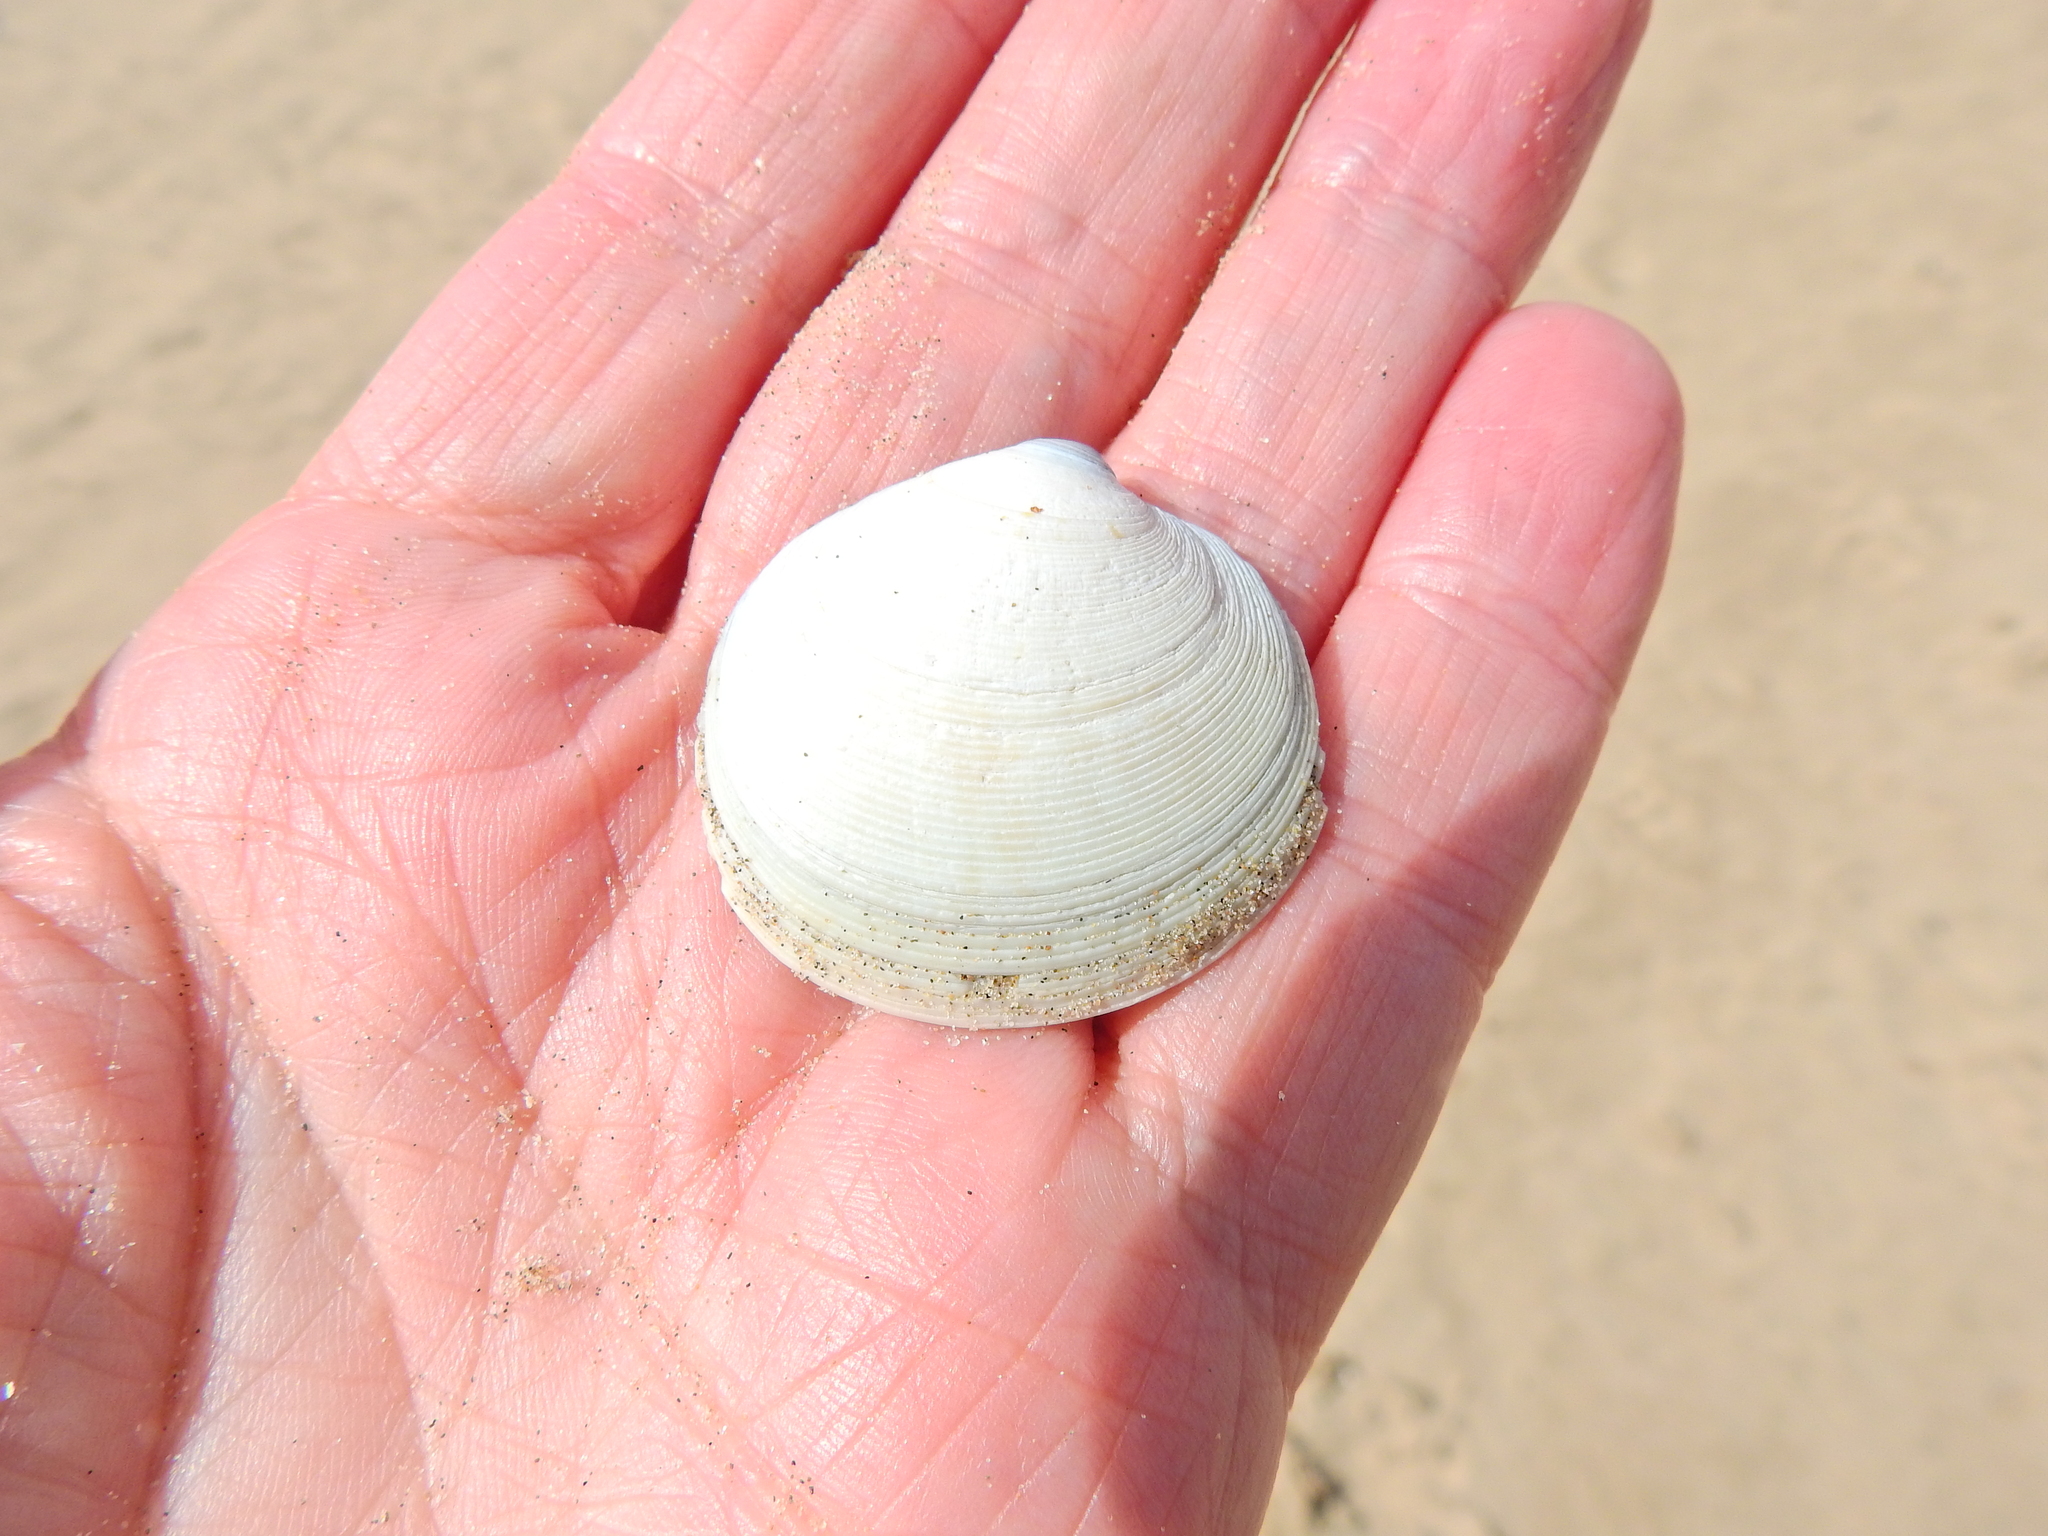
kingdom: Animalia
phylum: Mollusca
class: Bivalvia
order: Venerida
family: Veneridae
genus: Dosinia
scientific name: Dosinia exoleta
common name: Rayed artemis
